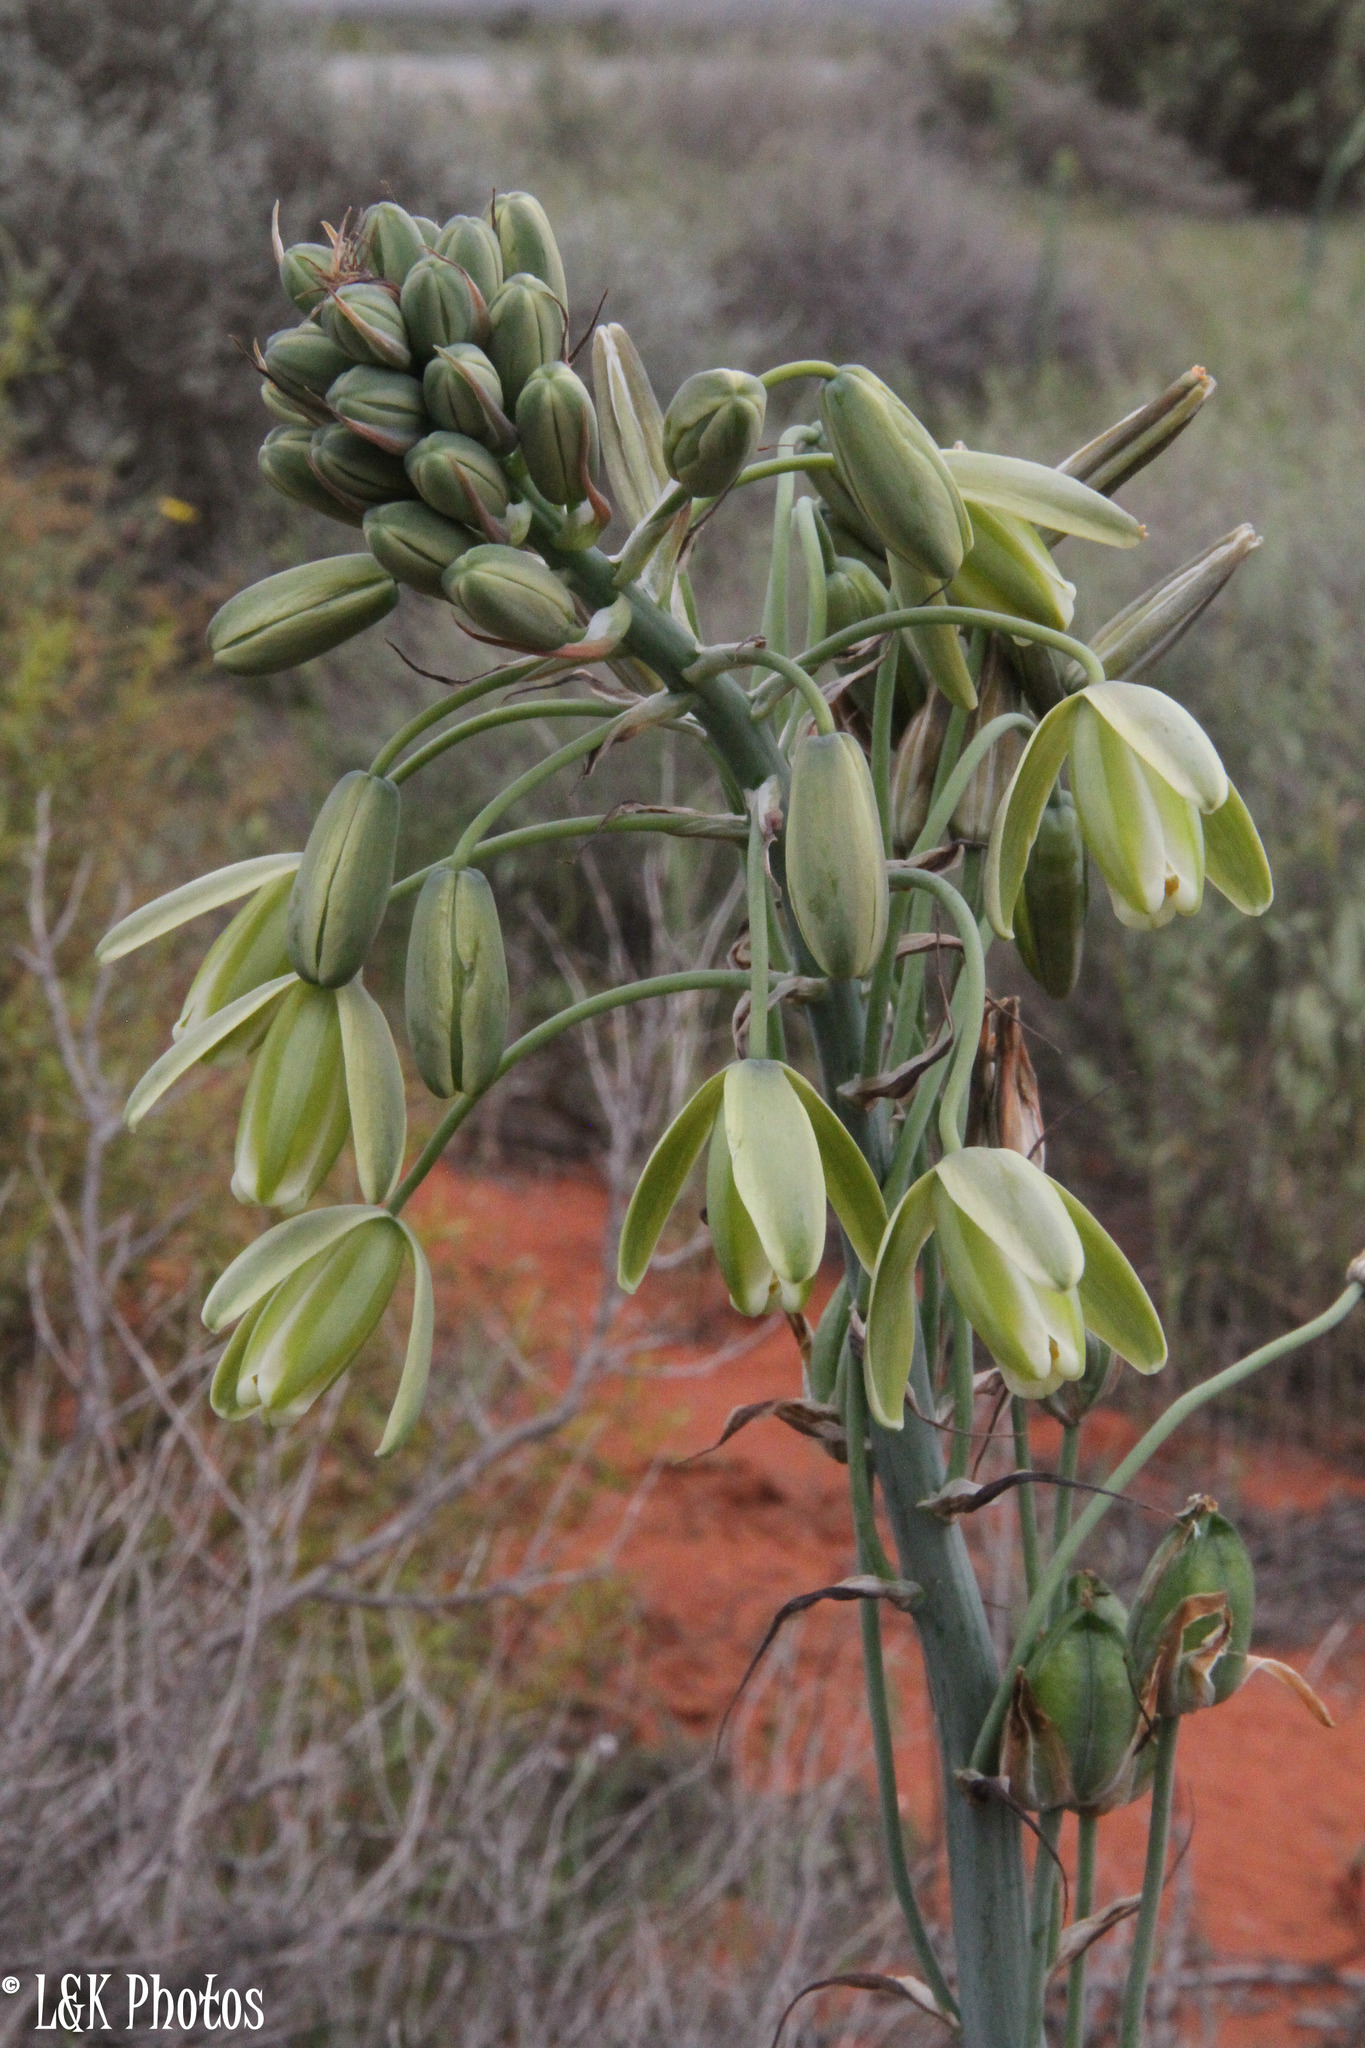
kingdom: Plantae
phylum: Tracheophyta
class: Liliopsida
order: Asparagales
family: Asparagaceae
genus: Albuca
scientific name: Albuca canadensis
